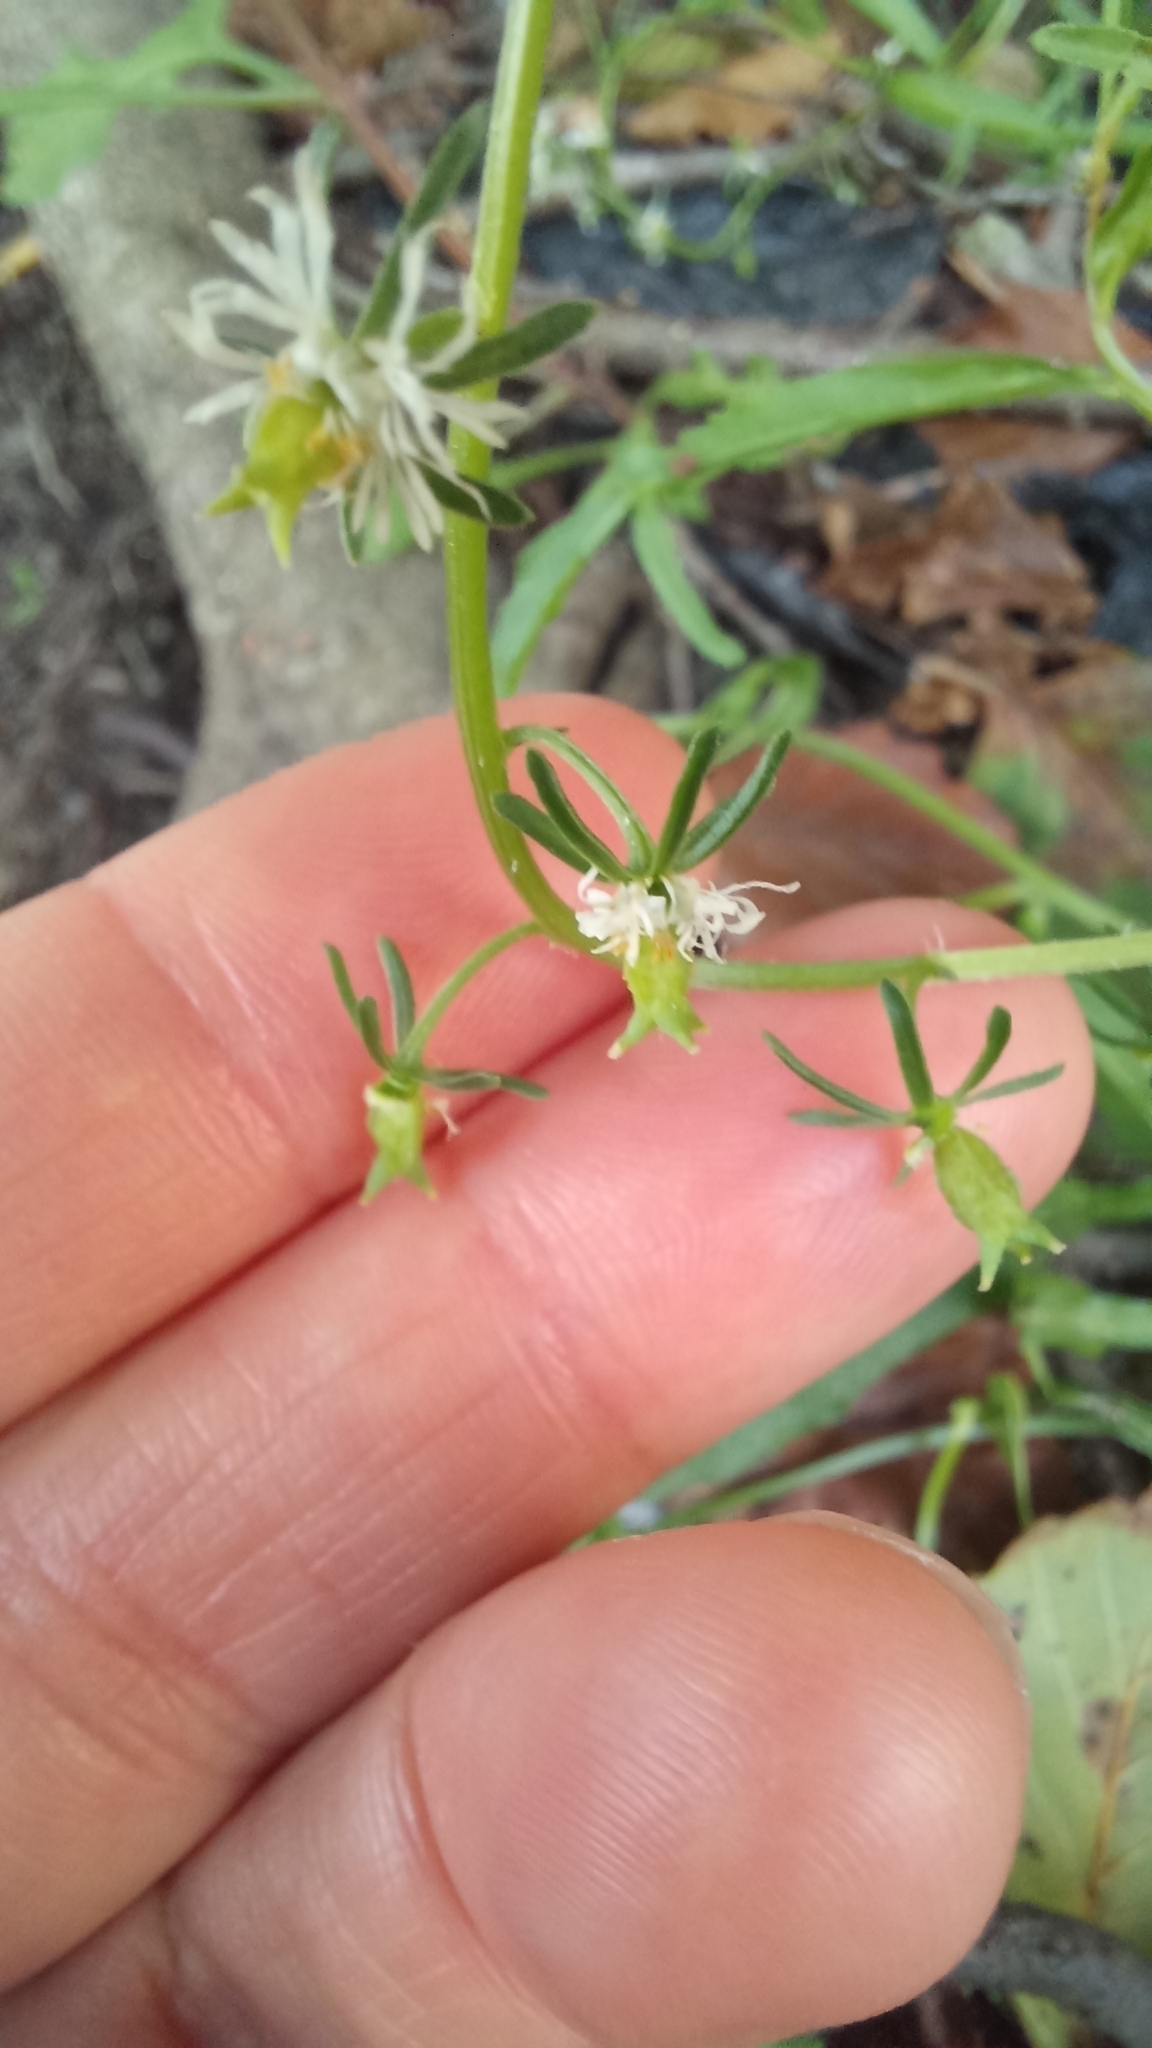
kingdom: Plantae
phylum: Tracheophyta
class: Magnoliopsida
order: Brassicales
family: Resedaceae
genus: Reseda
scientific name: Reseda phyteuma
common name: Corn mignonette
